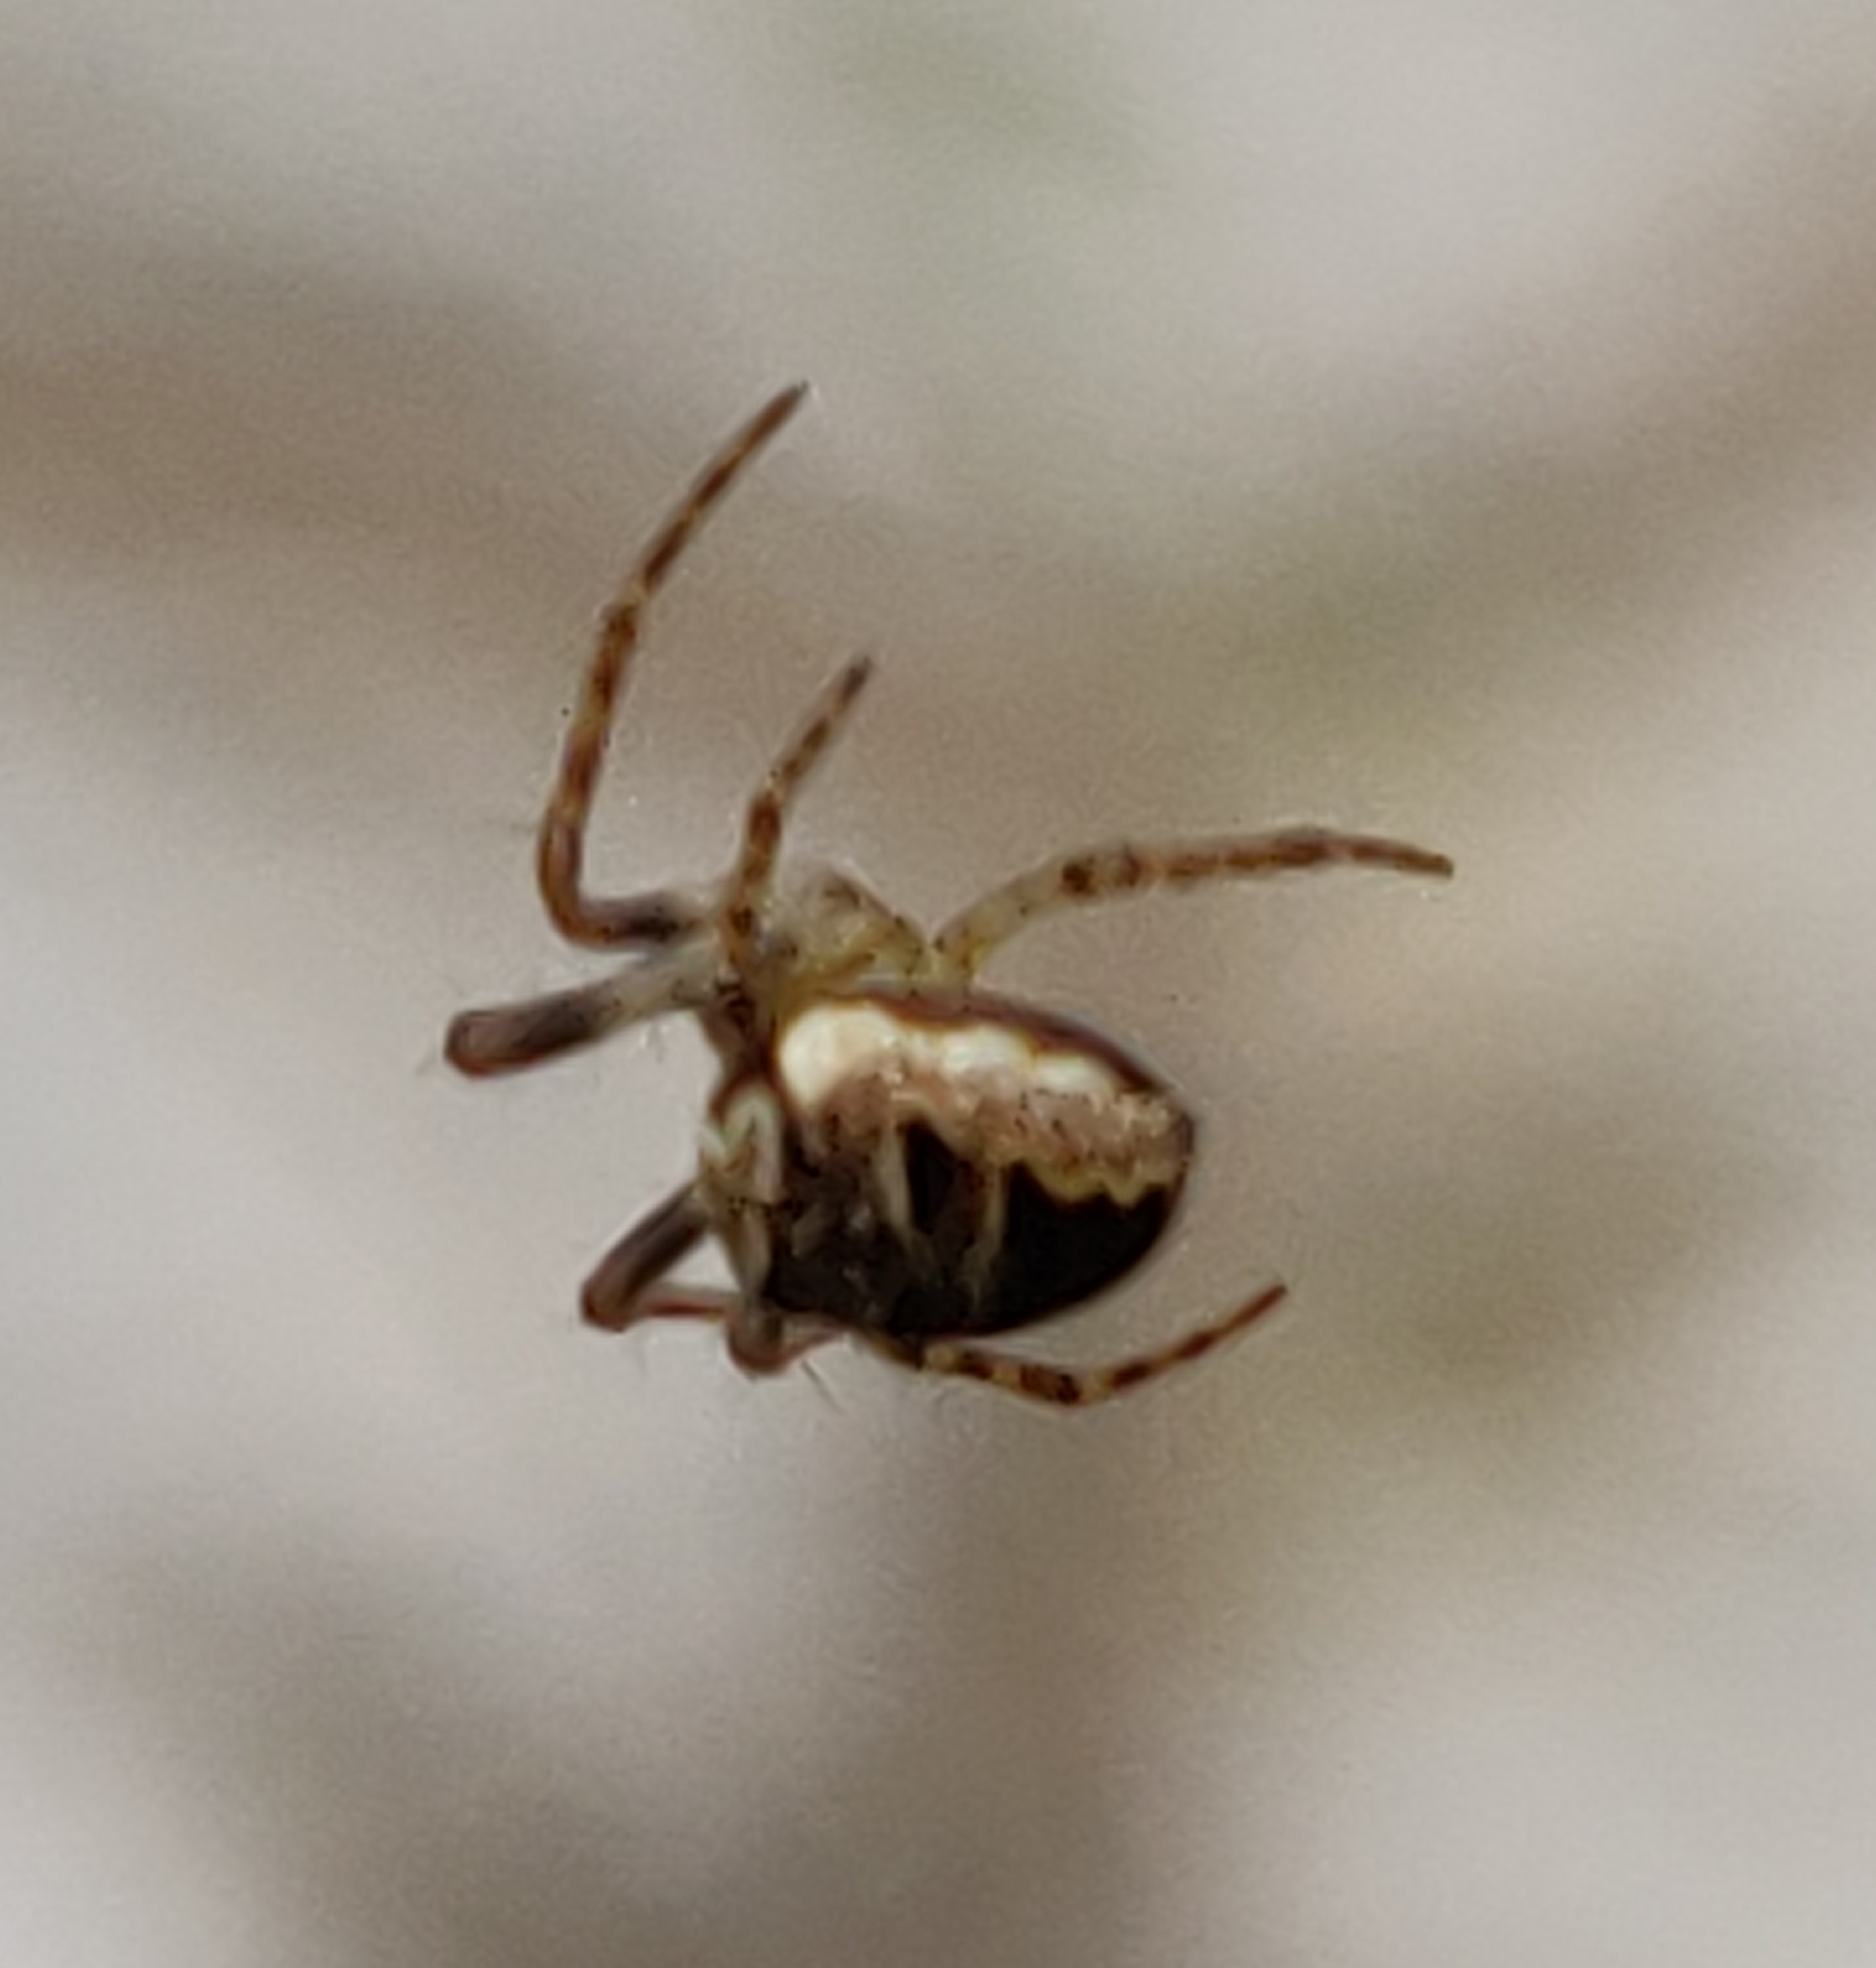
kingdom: Animalia
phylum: Arthropoda
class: Arachnida
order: Araneae
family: Araneidae
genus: Zilla
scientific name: Zilla diodia
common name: Zilla diodia
